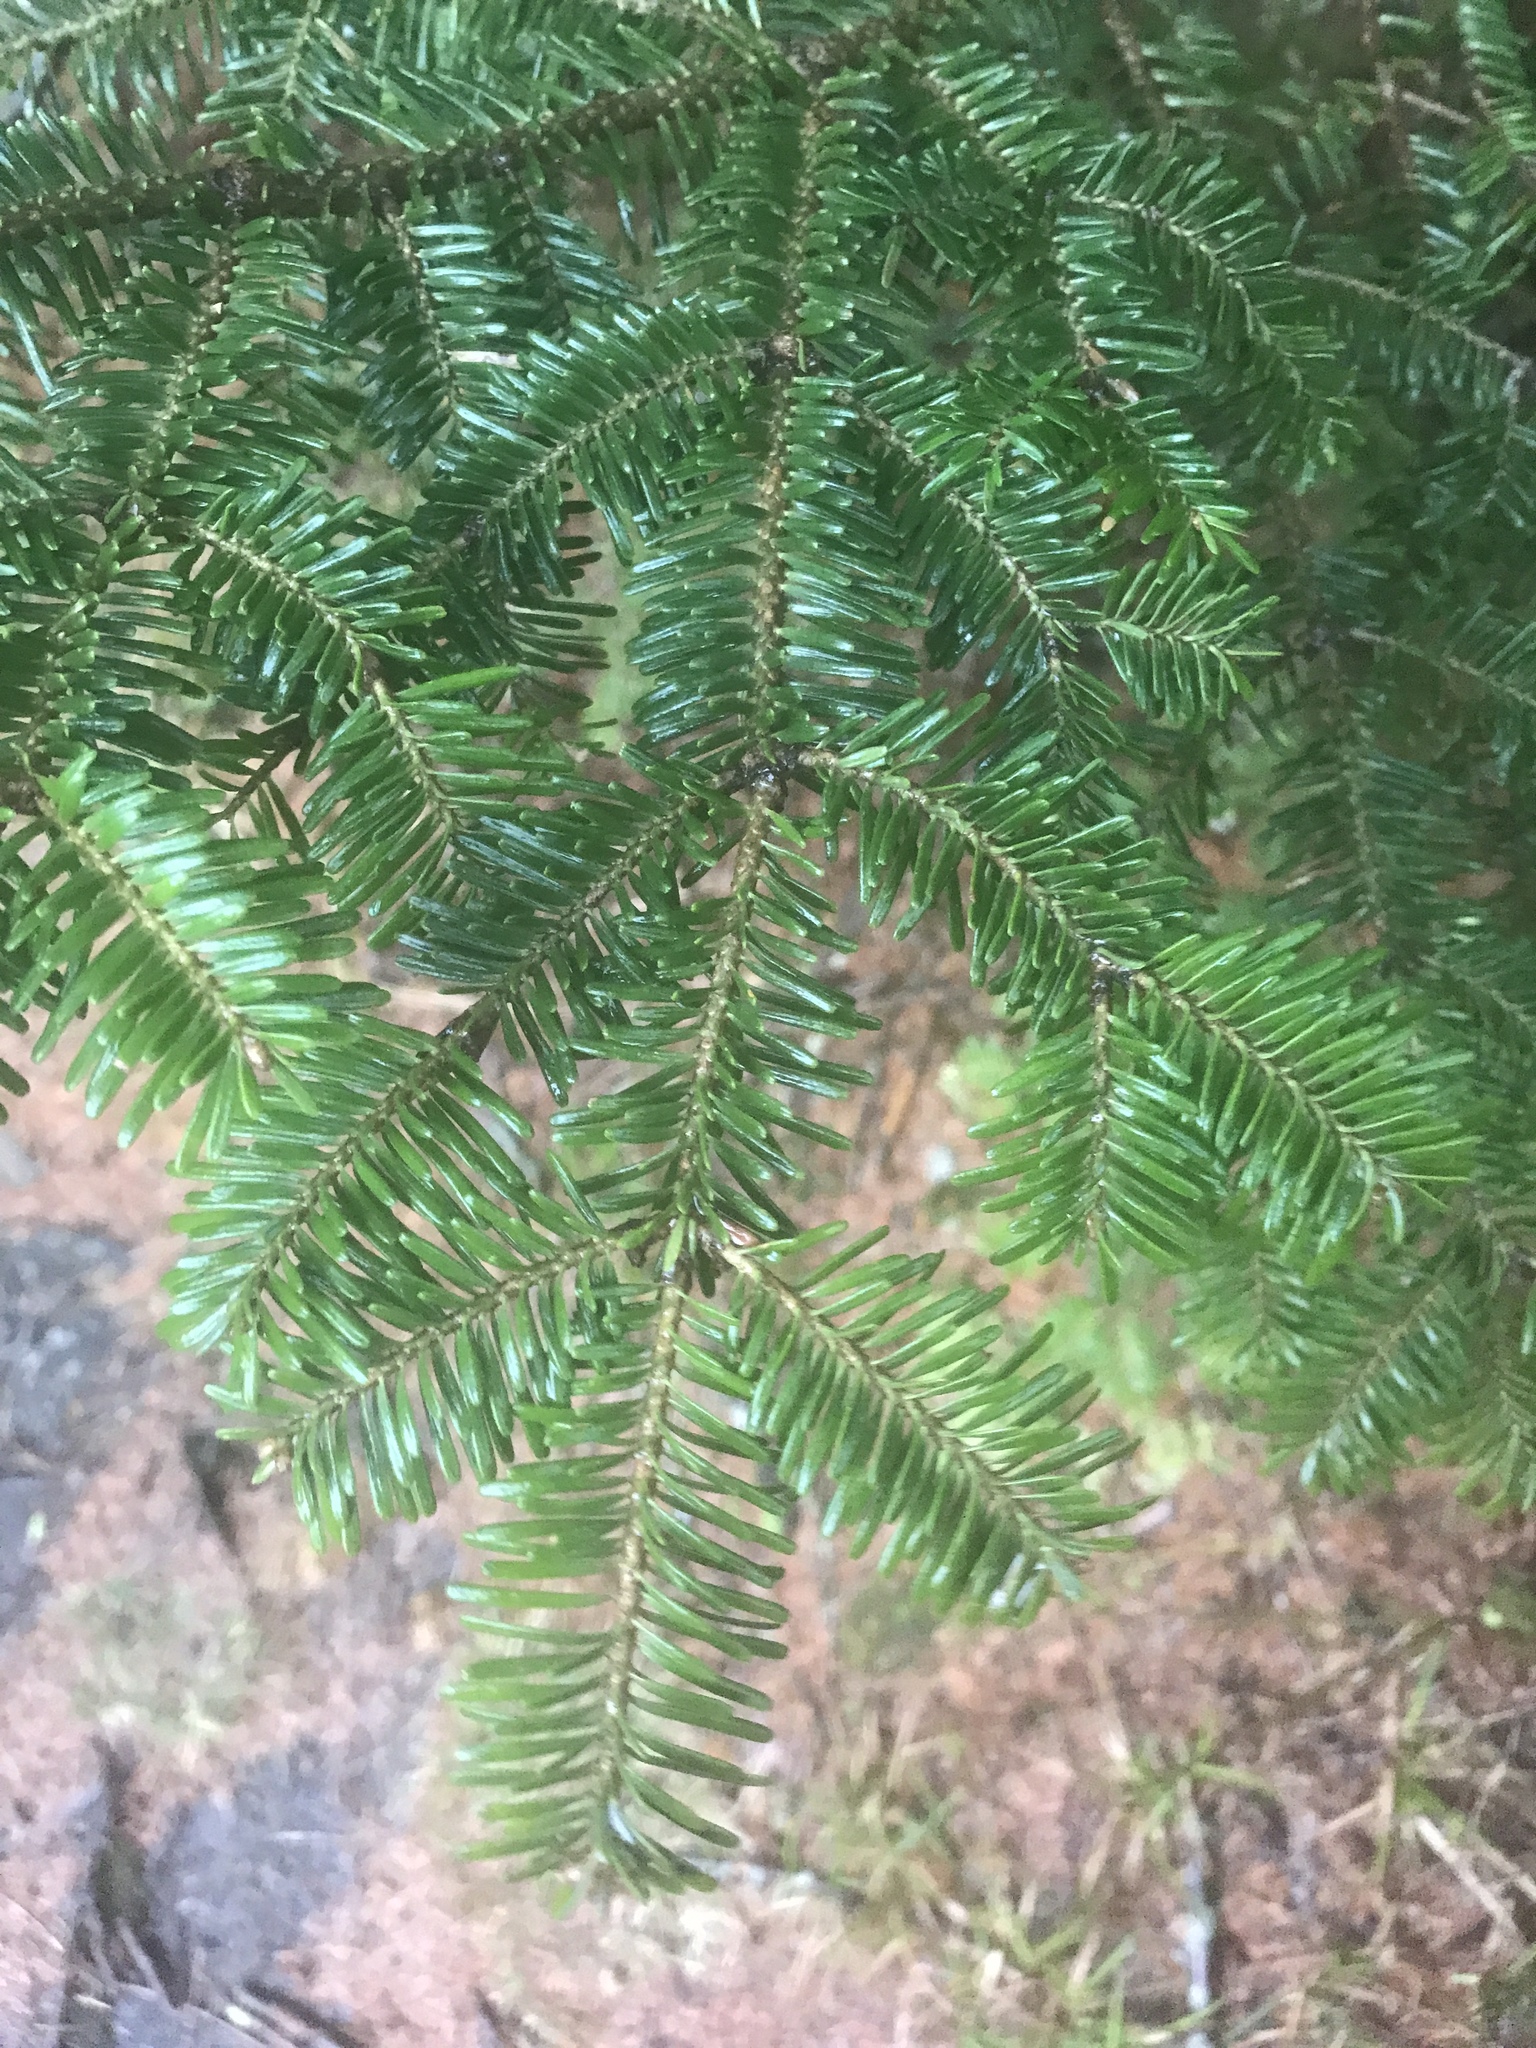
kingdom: Plantae
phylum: Tracheophyta
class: Pinopsida
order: Pinales
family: Pinaceae
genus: Abies
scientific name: Abies fraseri
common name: Fraser fir
